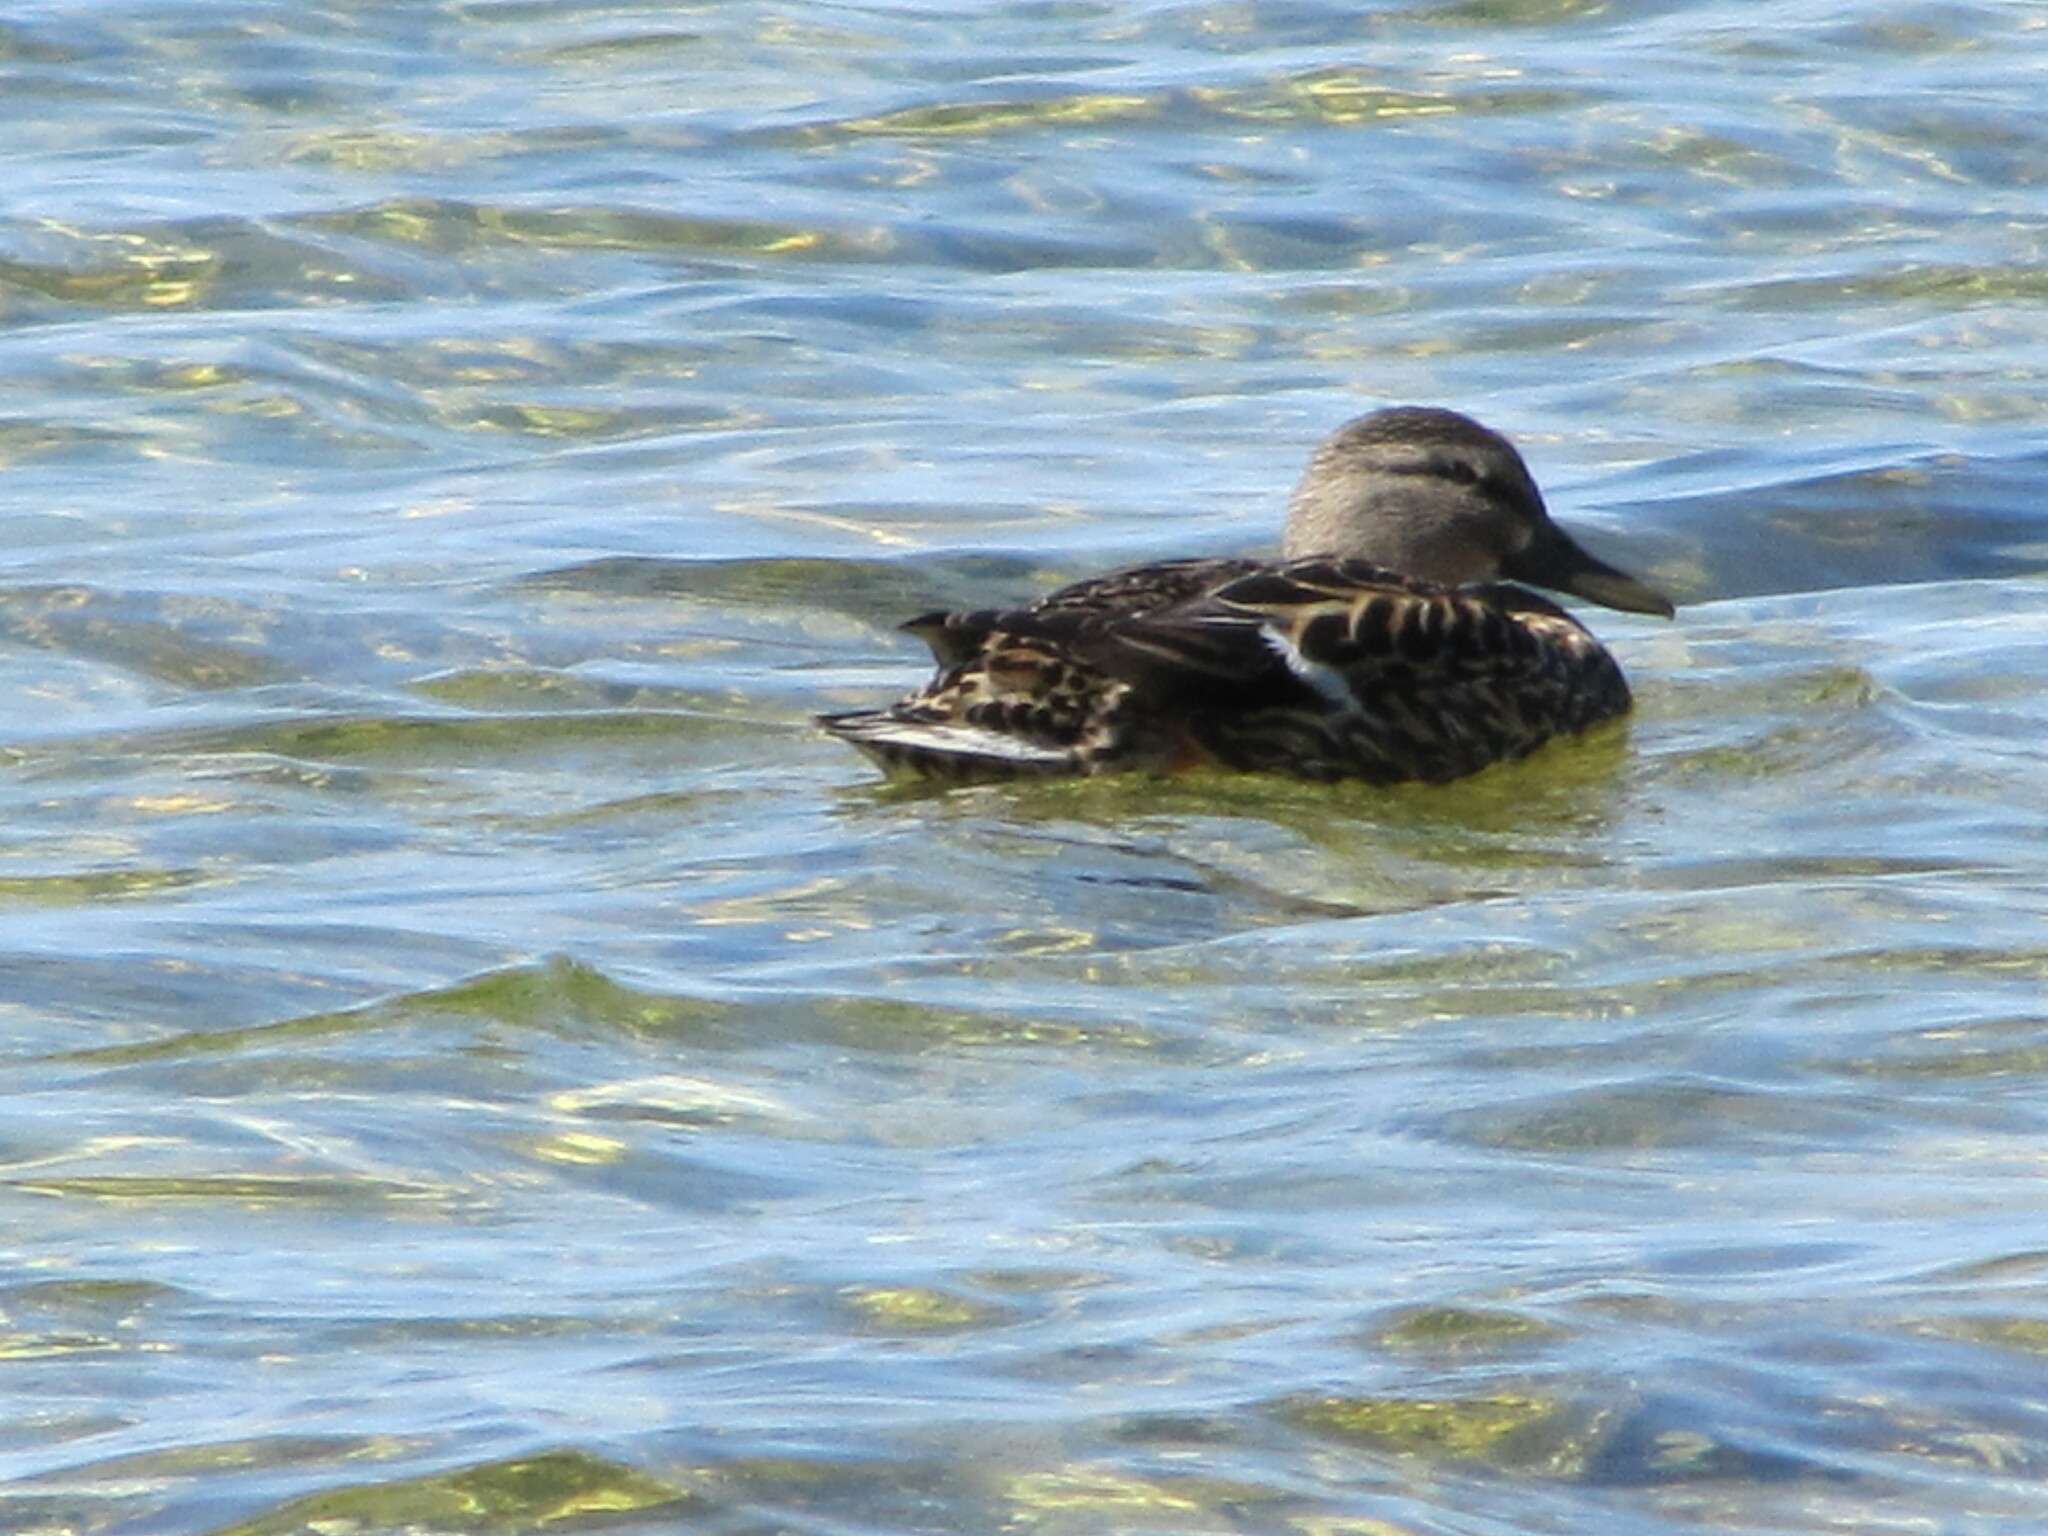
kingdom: Animalia
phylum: Chordata
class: Aves
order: Anseriformes
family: Anatidae
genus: Anas
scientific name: Anas platyrhynchos
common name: Mallard
